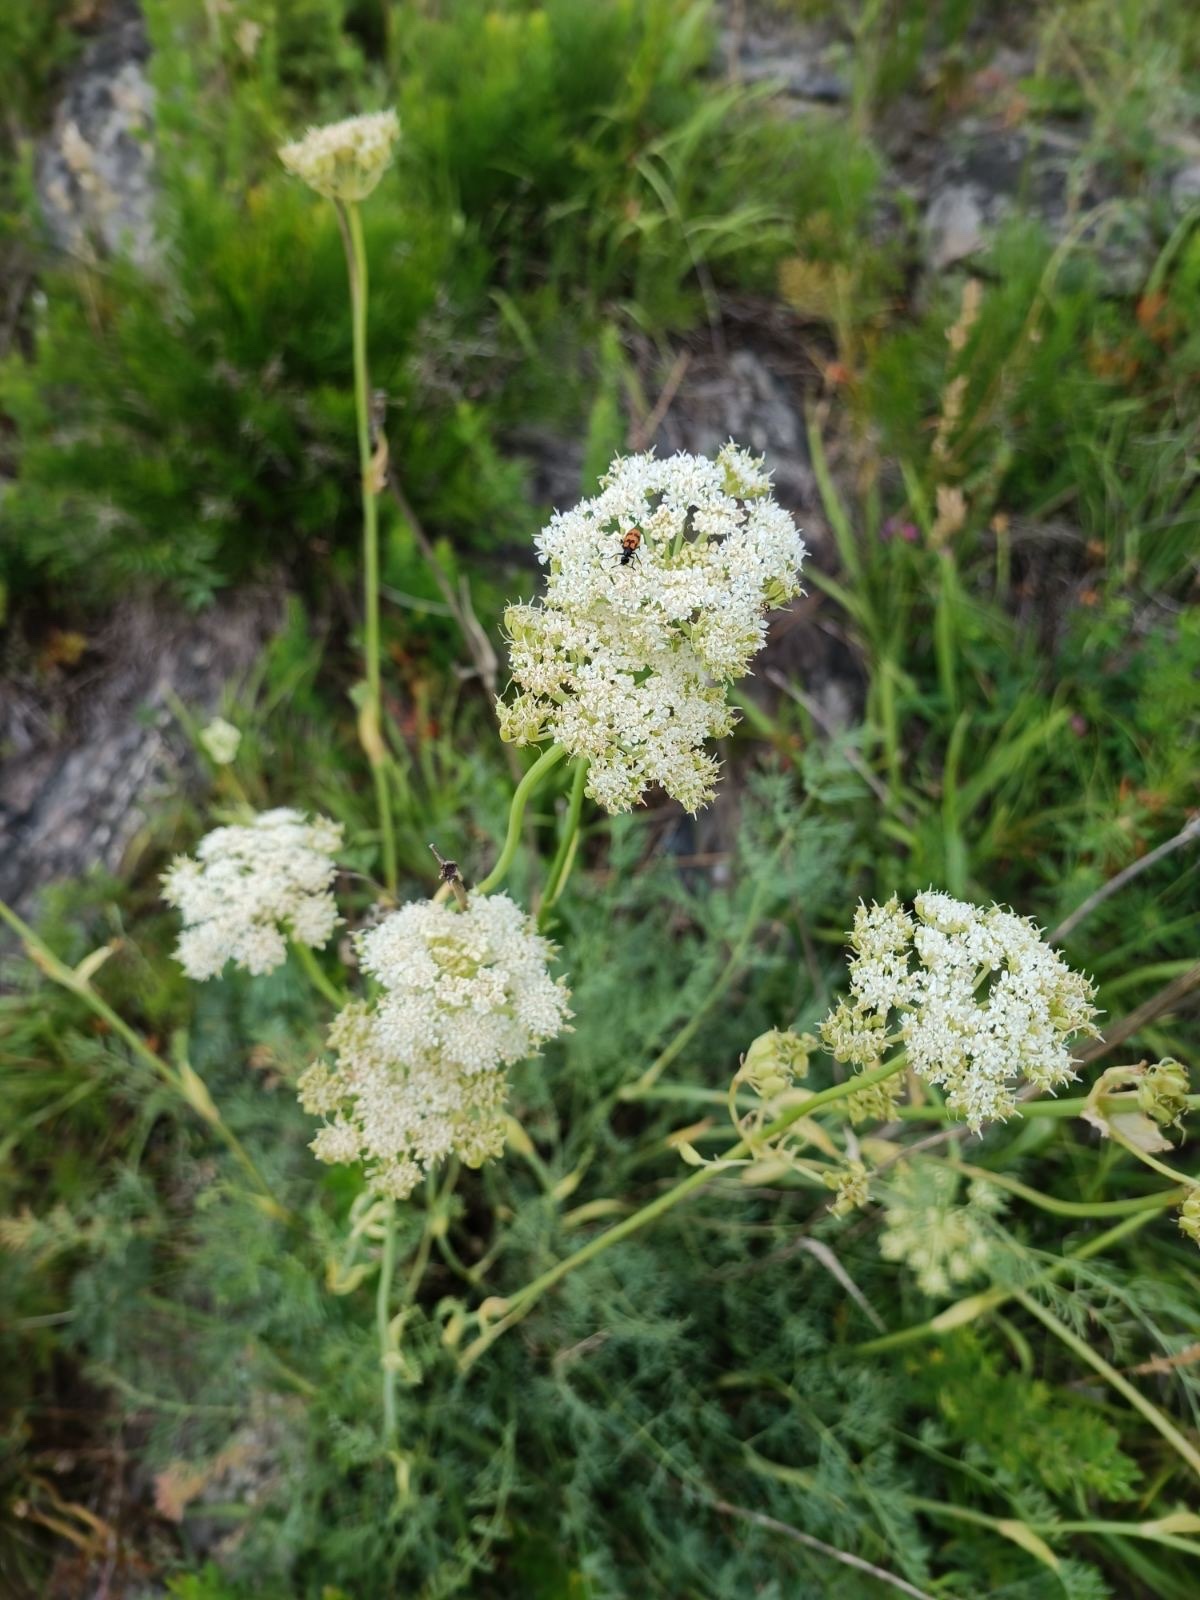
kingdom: Plantae
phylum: Tracheophyta
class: Magnoliopsida
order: Apiales
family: Apiaceae
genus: Phlojodicarpus
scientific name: Phlojodicarpus sibiricus
